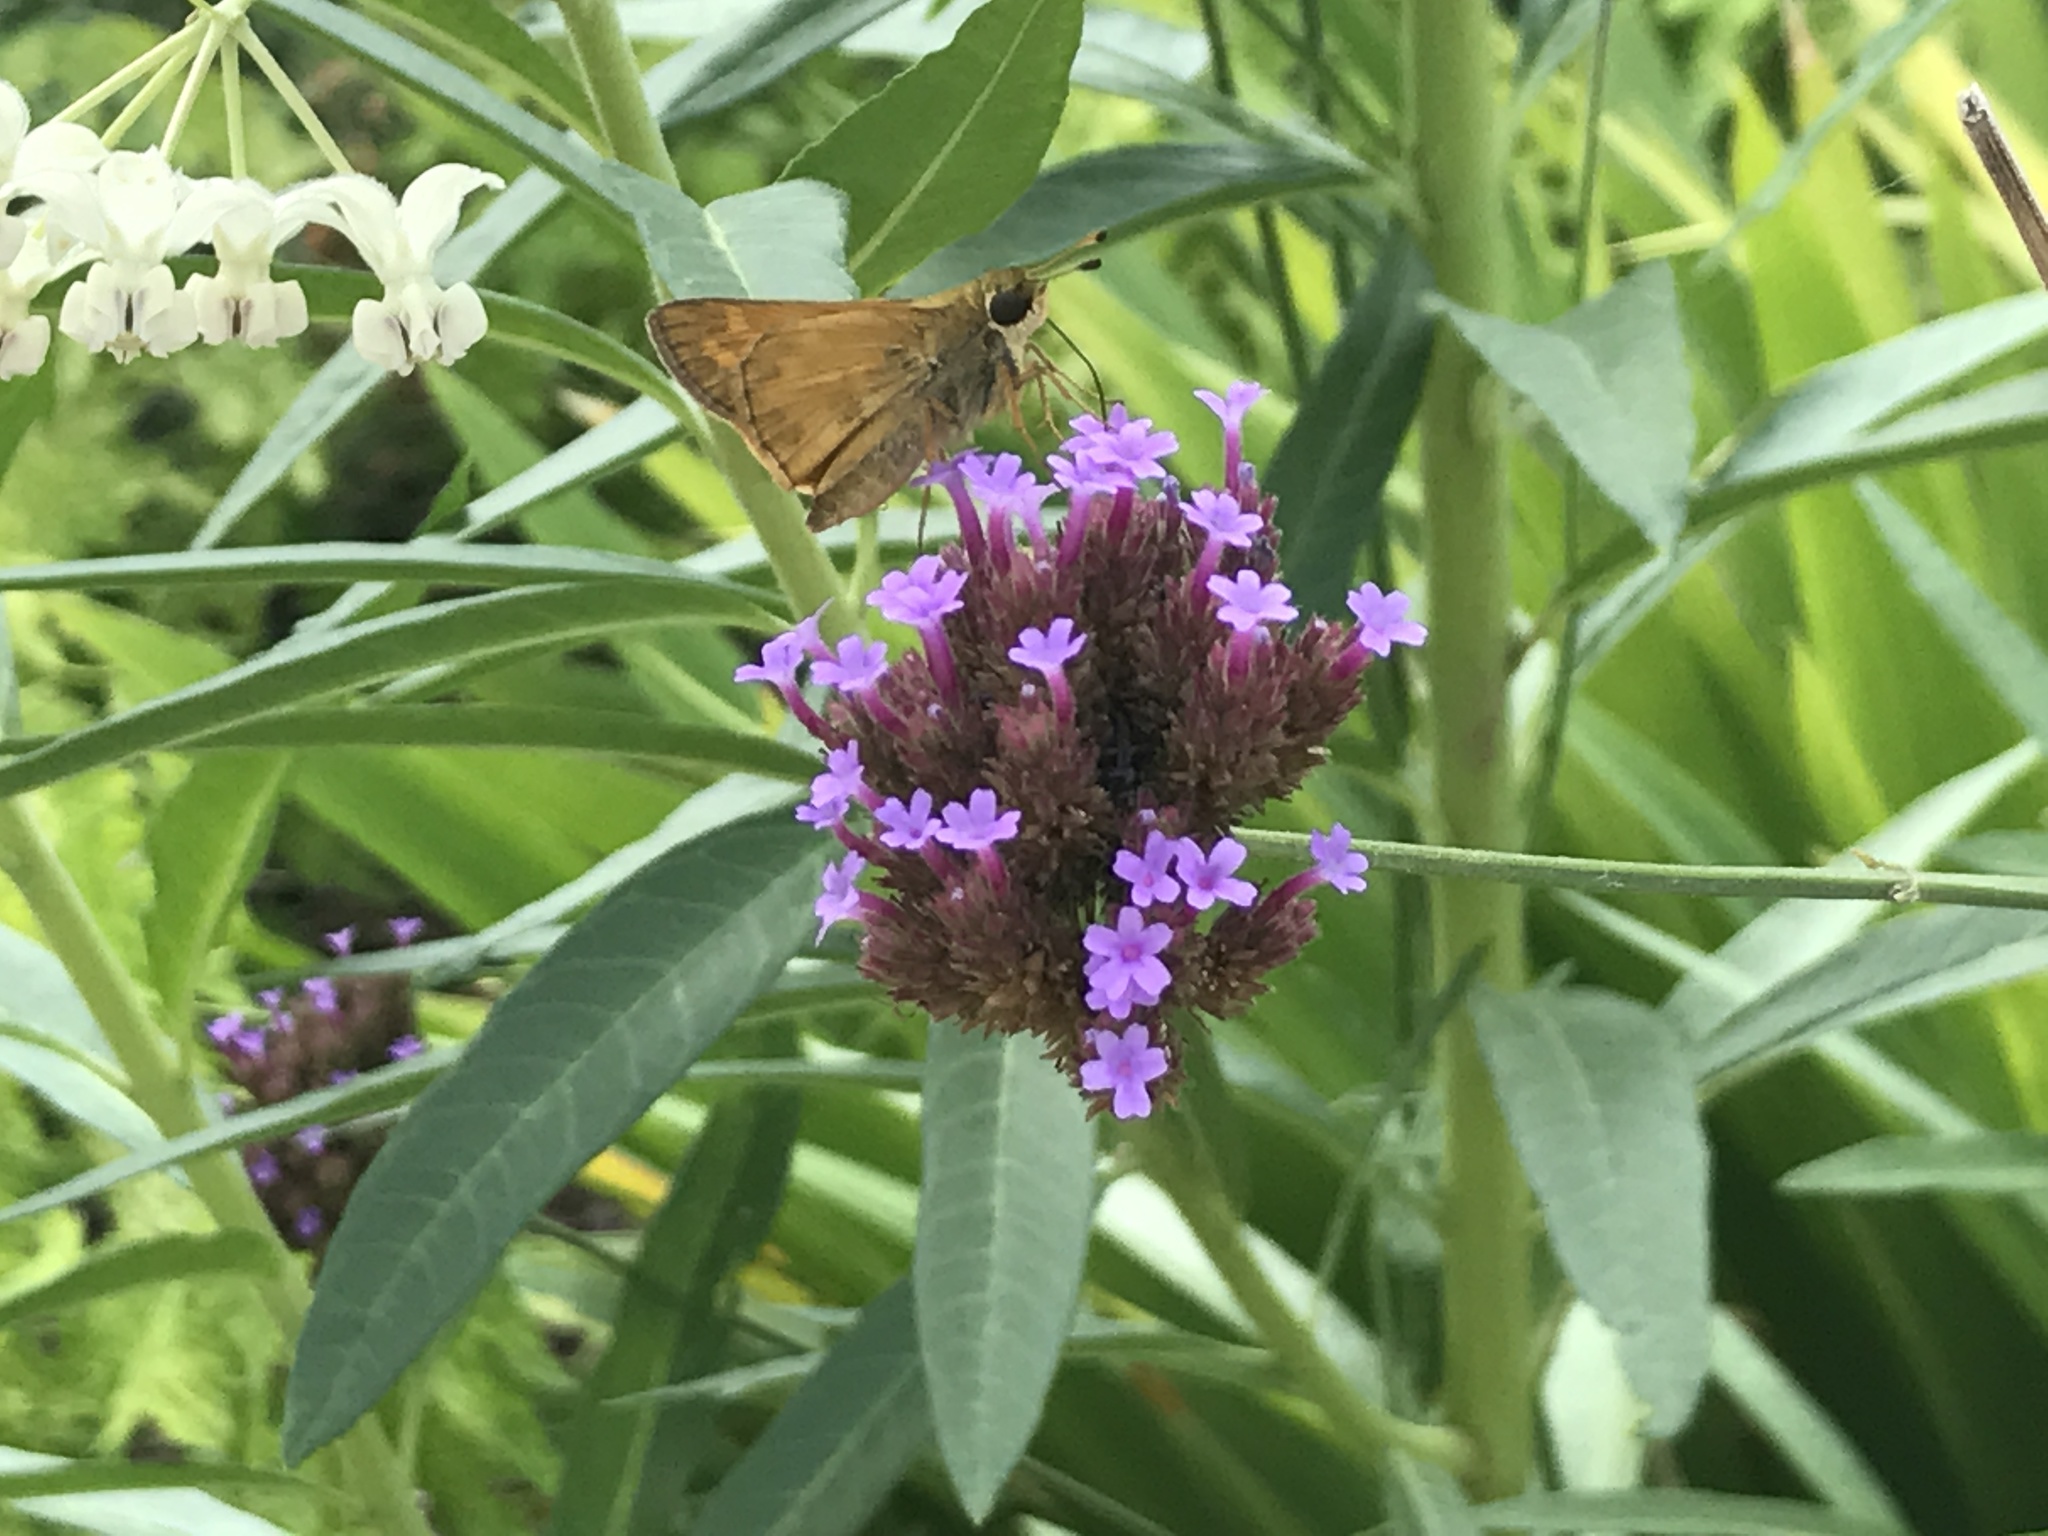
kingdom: Animalia
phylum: Arthropoda
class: Insecta
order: Lepidoptera
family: Hesperiidae
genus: Atalopedes
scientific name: Atalopedes
